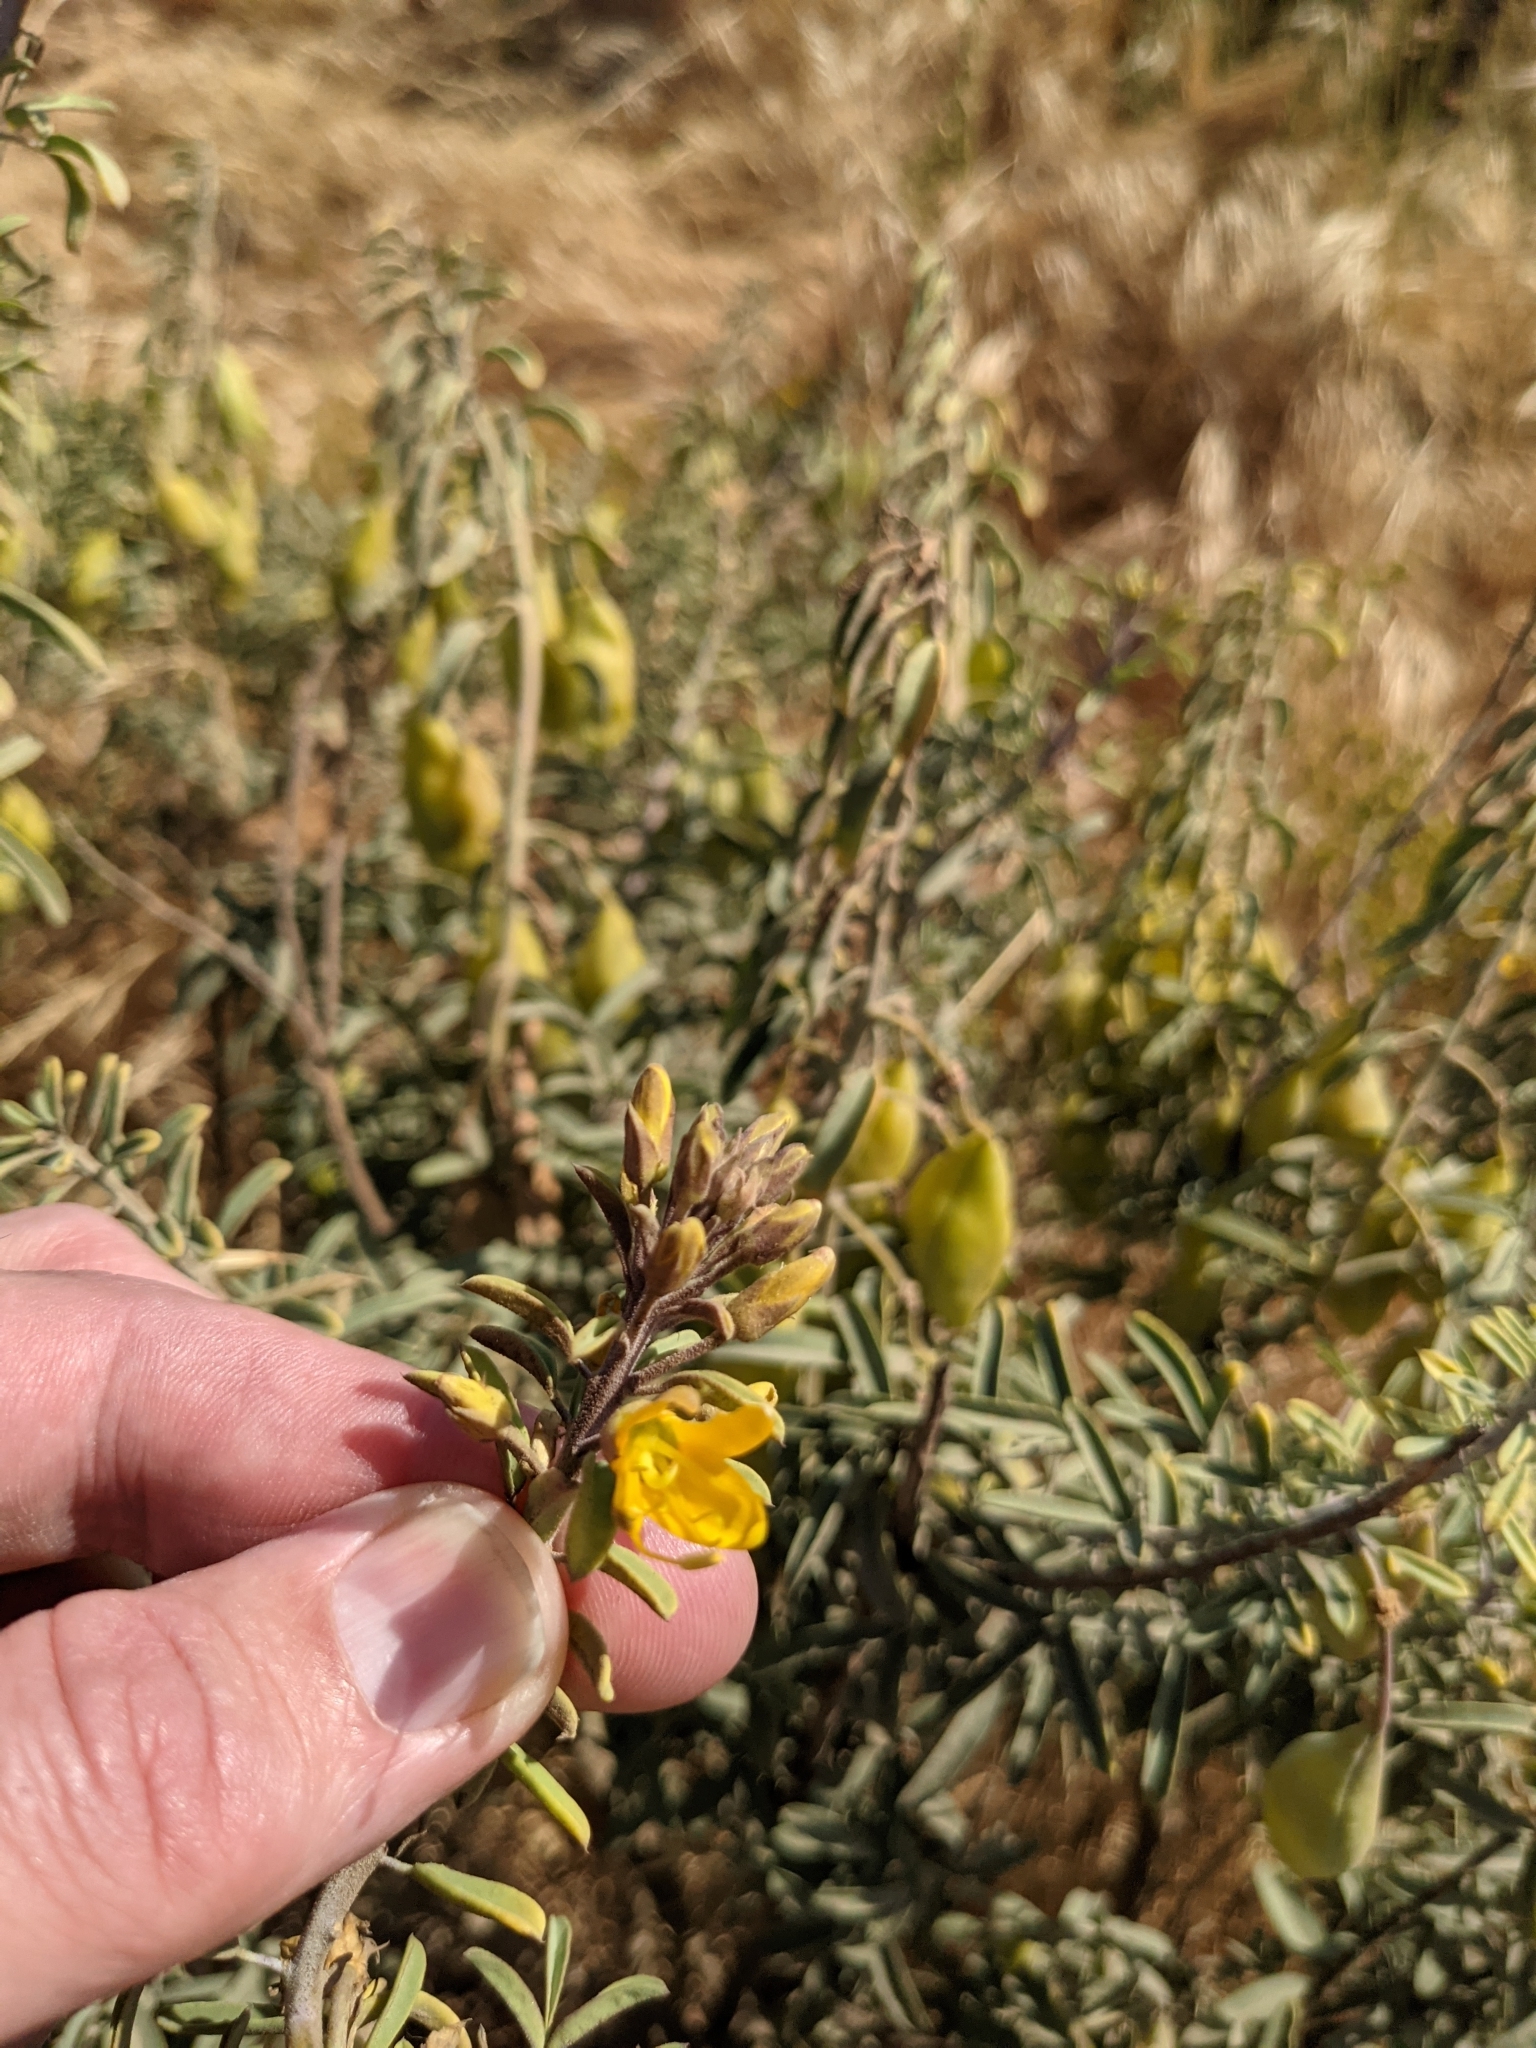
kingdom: Plantae
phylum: Tracheophyta
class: Magnoliopsida
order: Brassicales
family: Cleomaceae
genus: Cleomella
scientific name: Cleomella arborea
